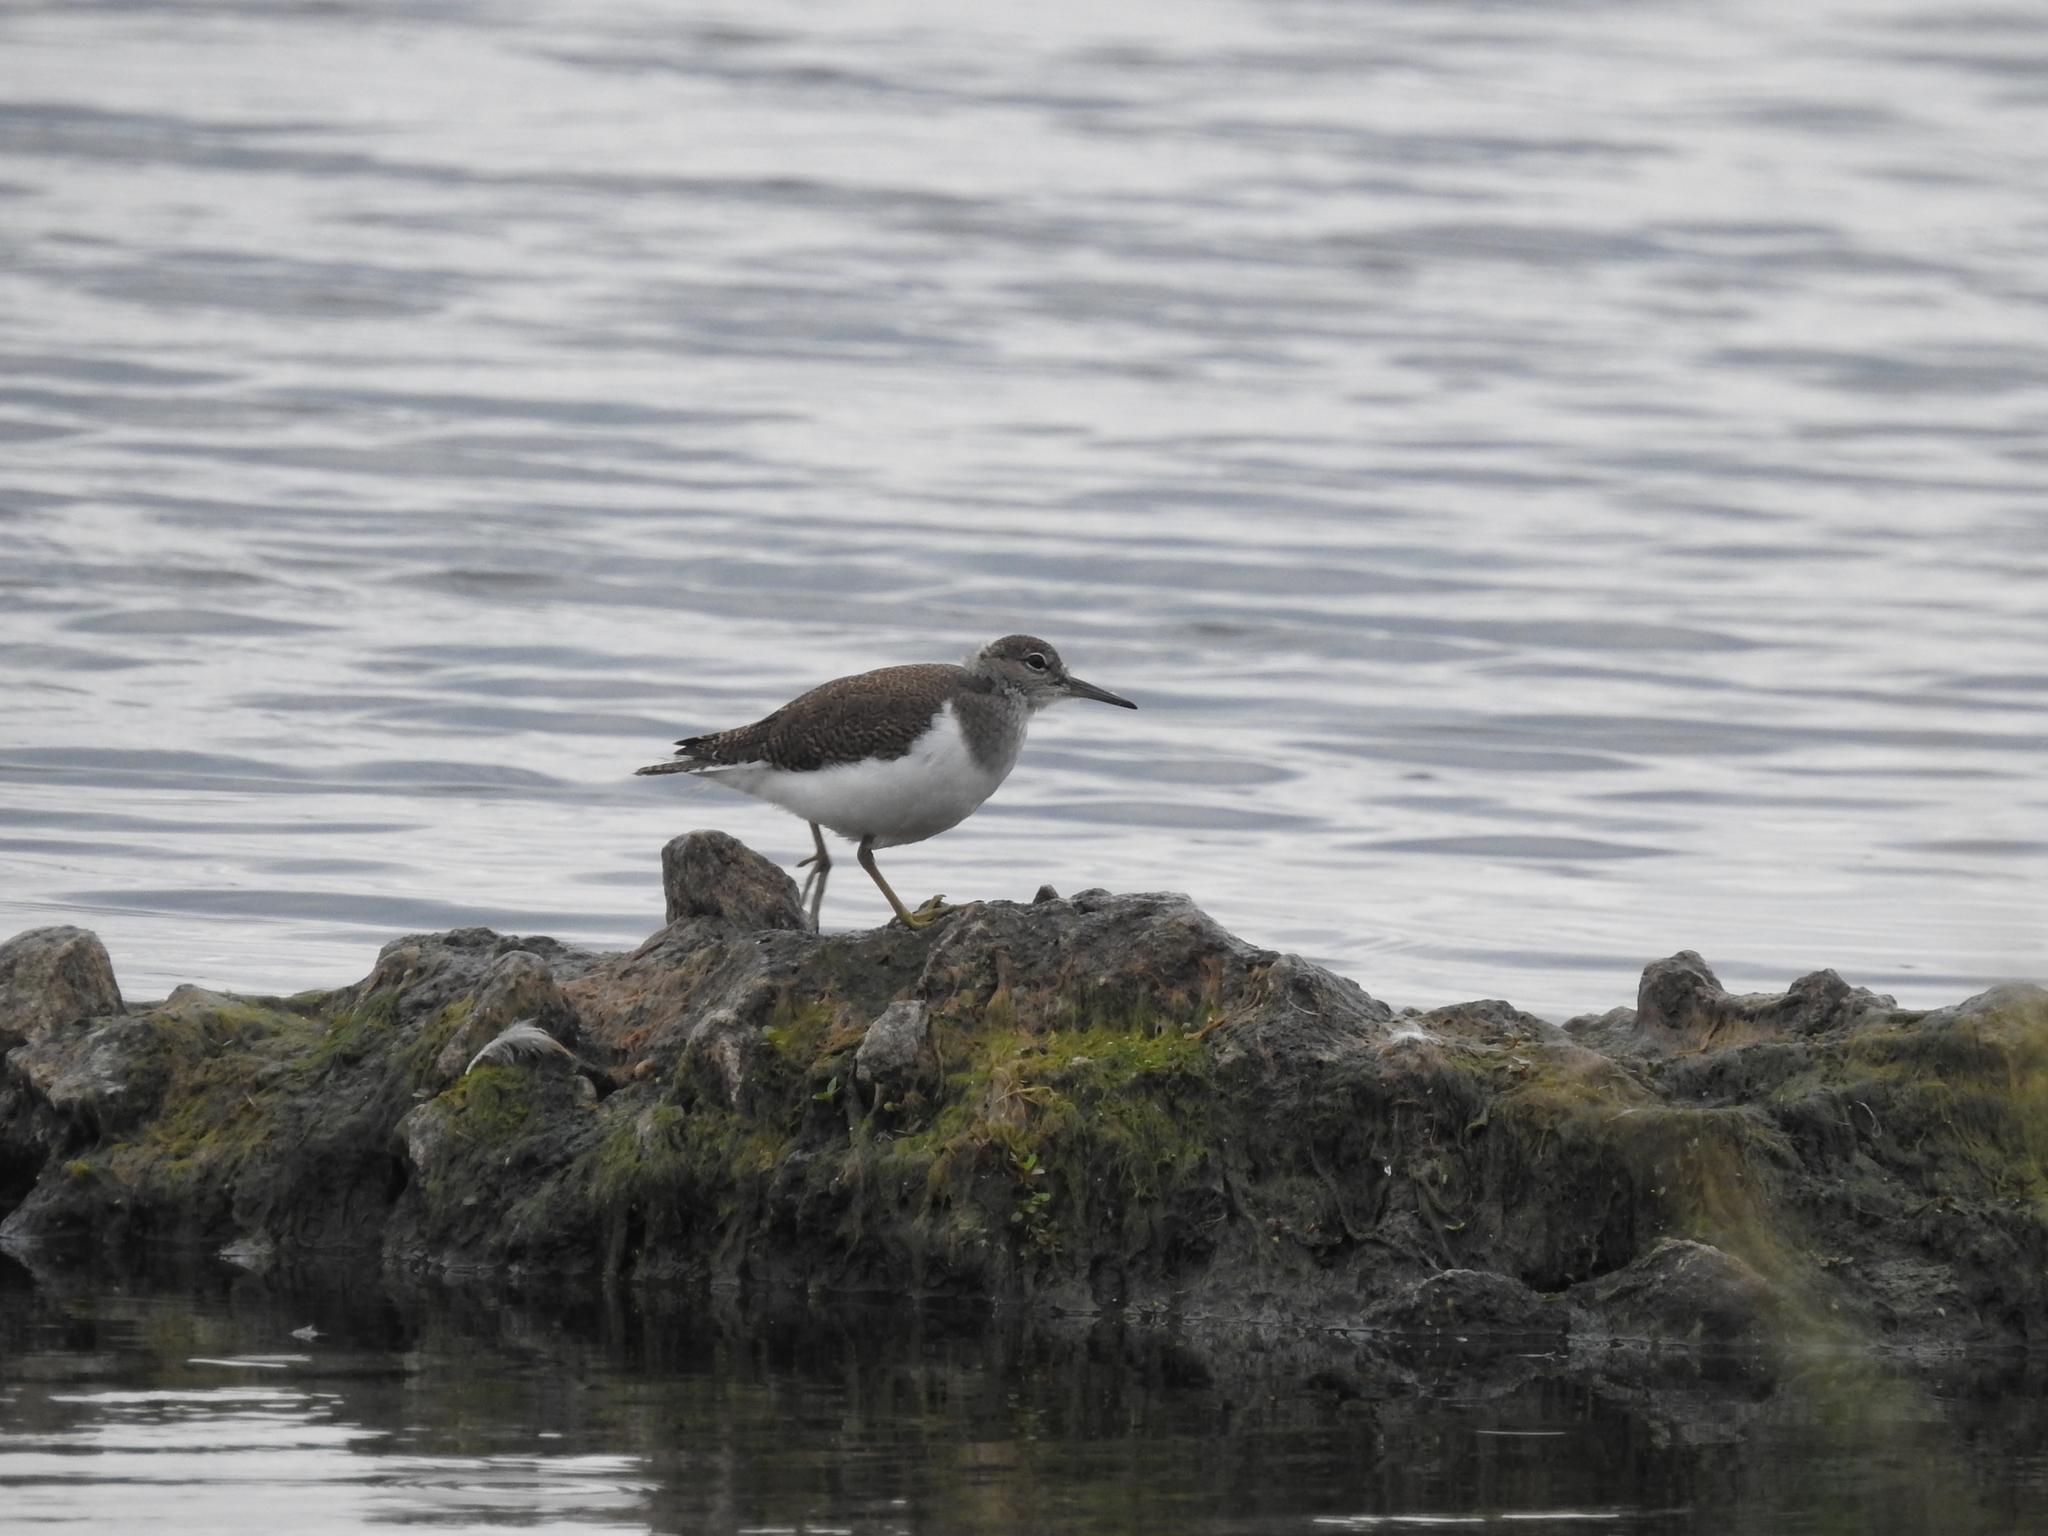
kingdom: Animalia
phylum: Chordata
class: Aves
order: Charadriiformes
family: Scolopacidae
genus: Actitis
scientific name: Actitis hypoleucos
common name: Common sandpiper
